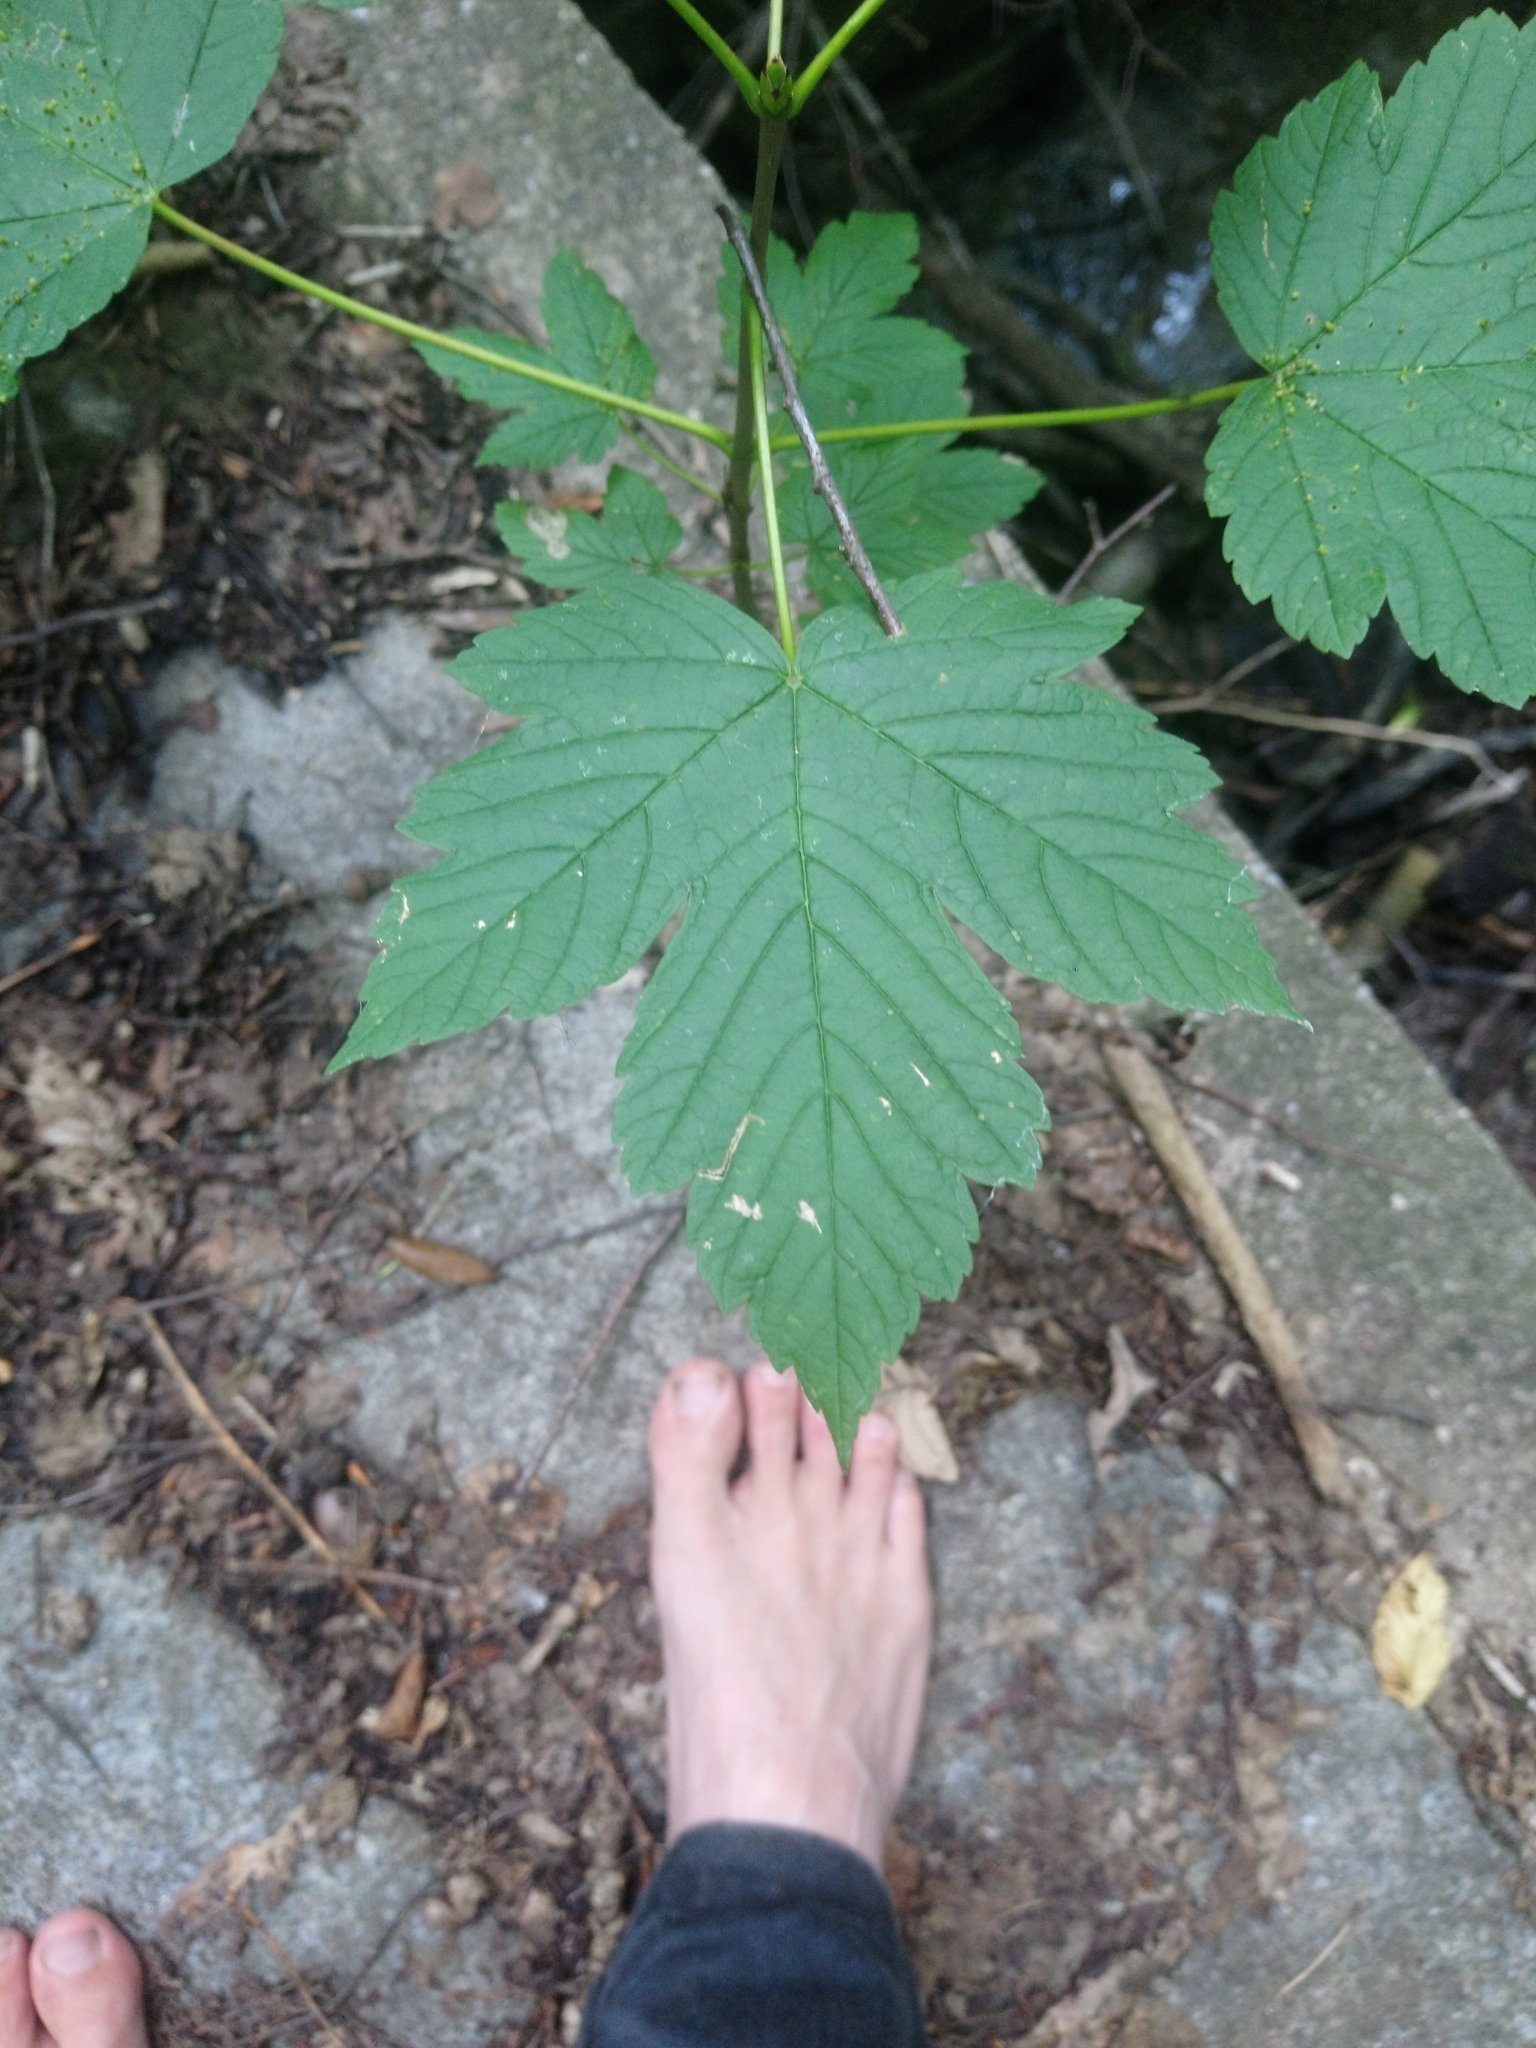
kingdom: Plantae
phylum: Tracheophyta
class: Magnoliopsida
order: Sapindales
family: Sapindaceae
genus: Acer
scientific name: Acer pseudoplatanus
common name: Sycamore
